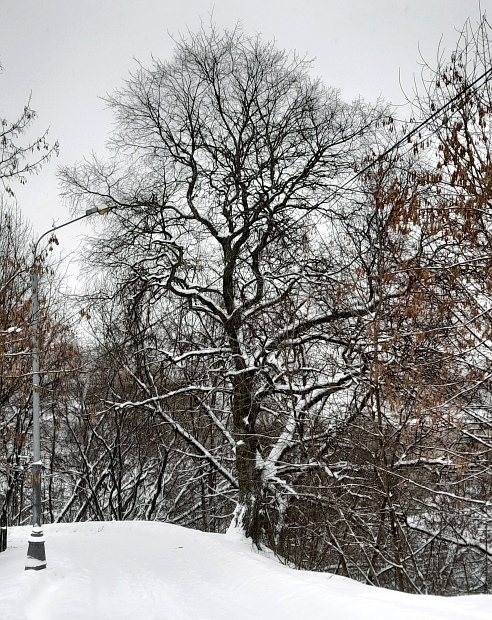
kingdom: Plantae
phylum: Tracheophyta
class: Magnoliopsida
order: Fagales
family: Fagaceae
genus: Quercus
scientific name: Quercus robur
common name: Pedunculate oak
